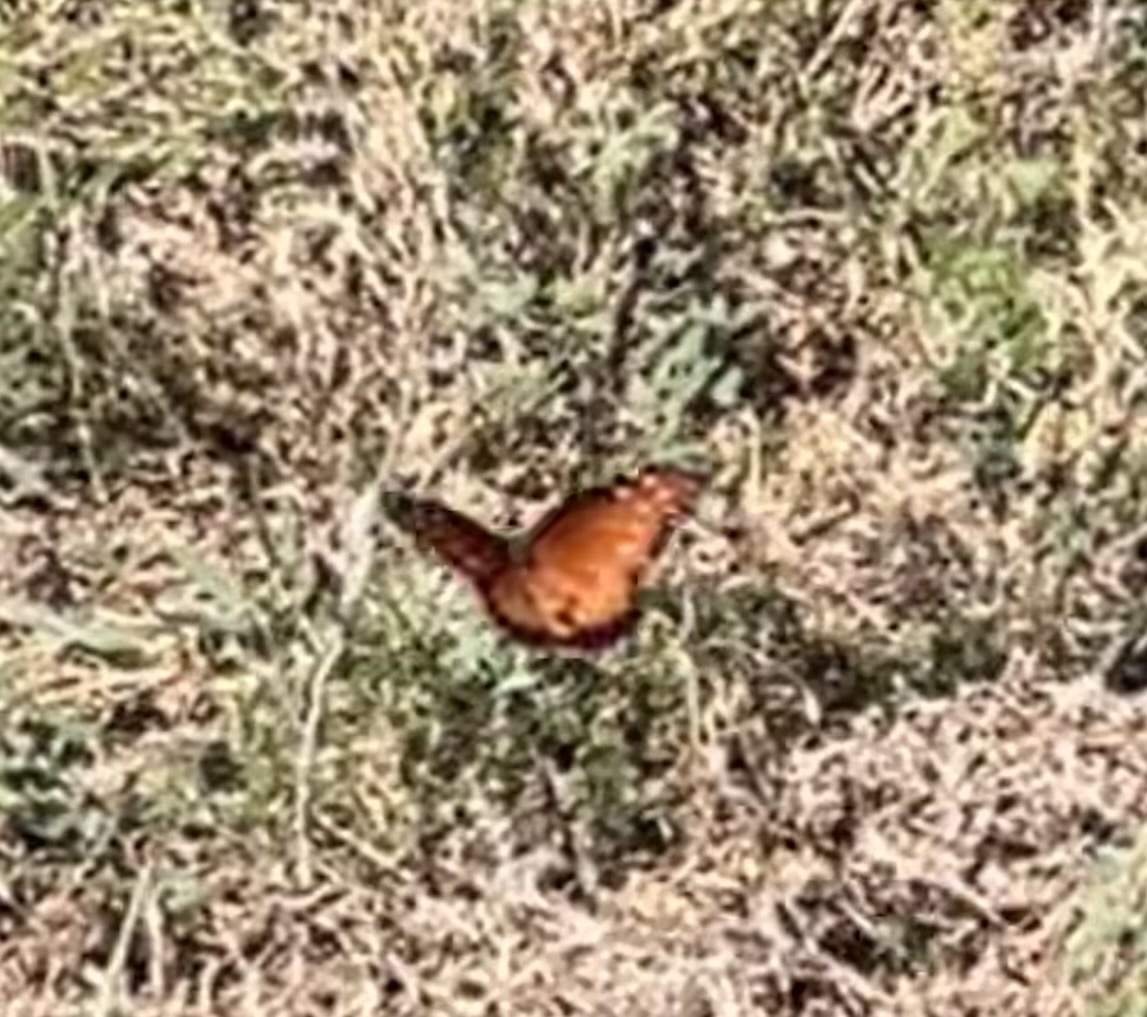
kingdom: Animalia
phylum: Arthropoda
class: Insecta
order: Lepidoptera
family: Nymphalidae
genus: Danaus
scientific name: Danaus gilippus
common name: Queen
